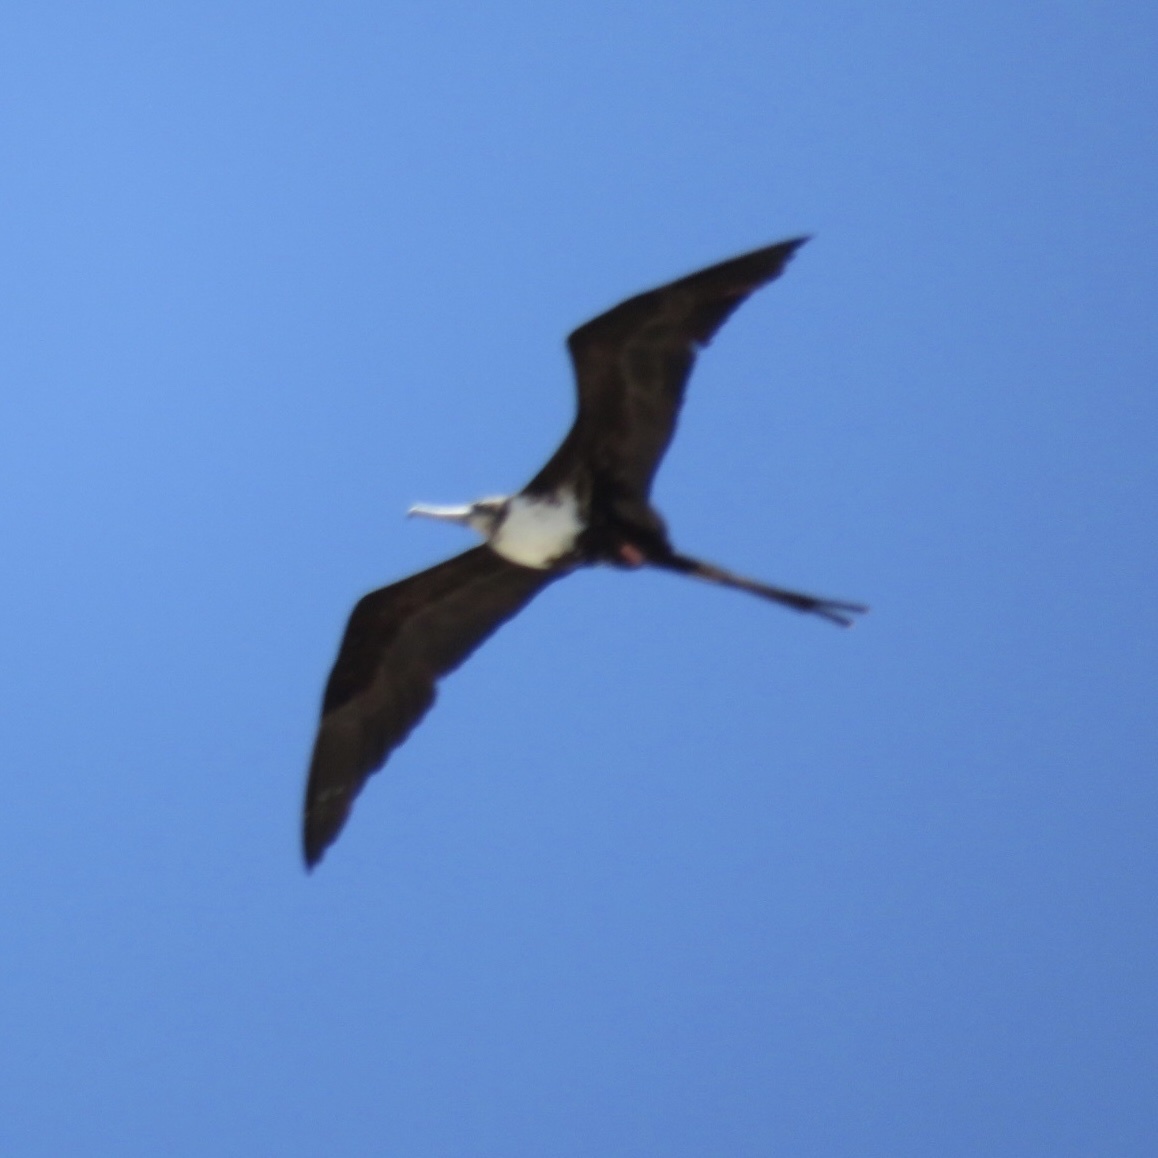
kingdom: Animalia
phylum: Chordata
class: Aves
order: Suliformes
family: Fregatidae
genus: Fregata
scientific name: Fregata magnificens
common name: Magnificent frigatebird
